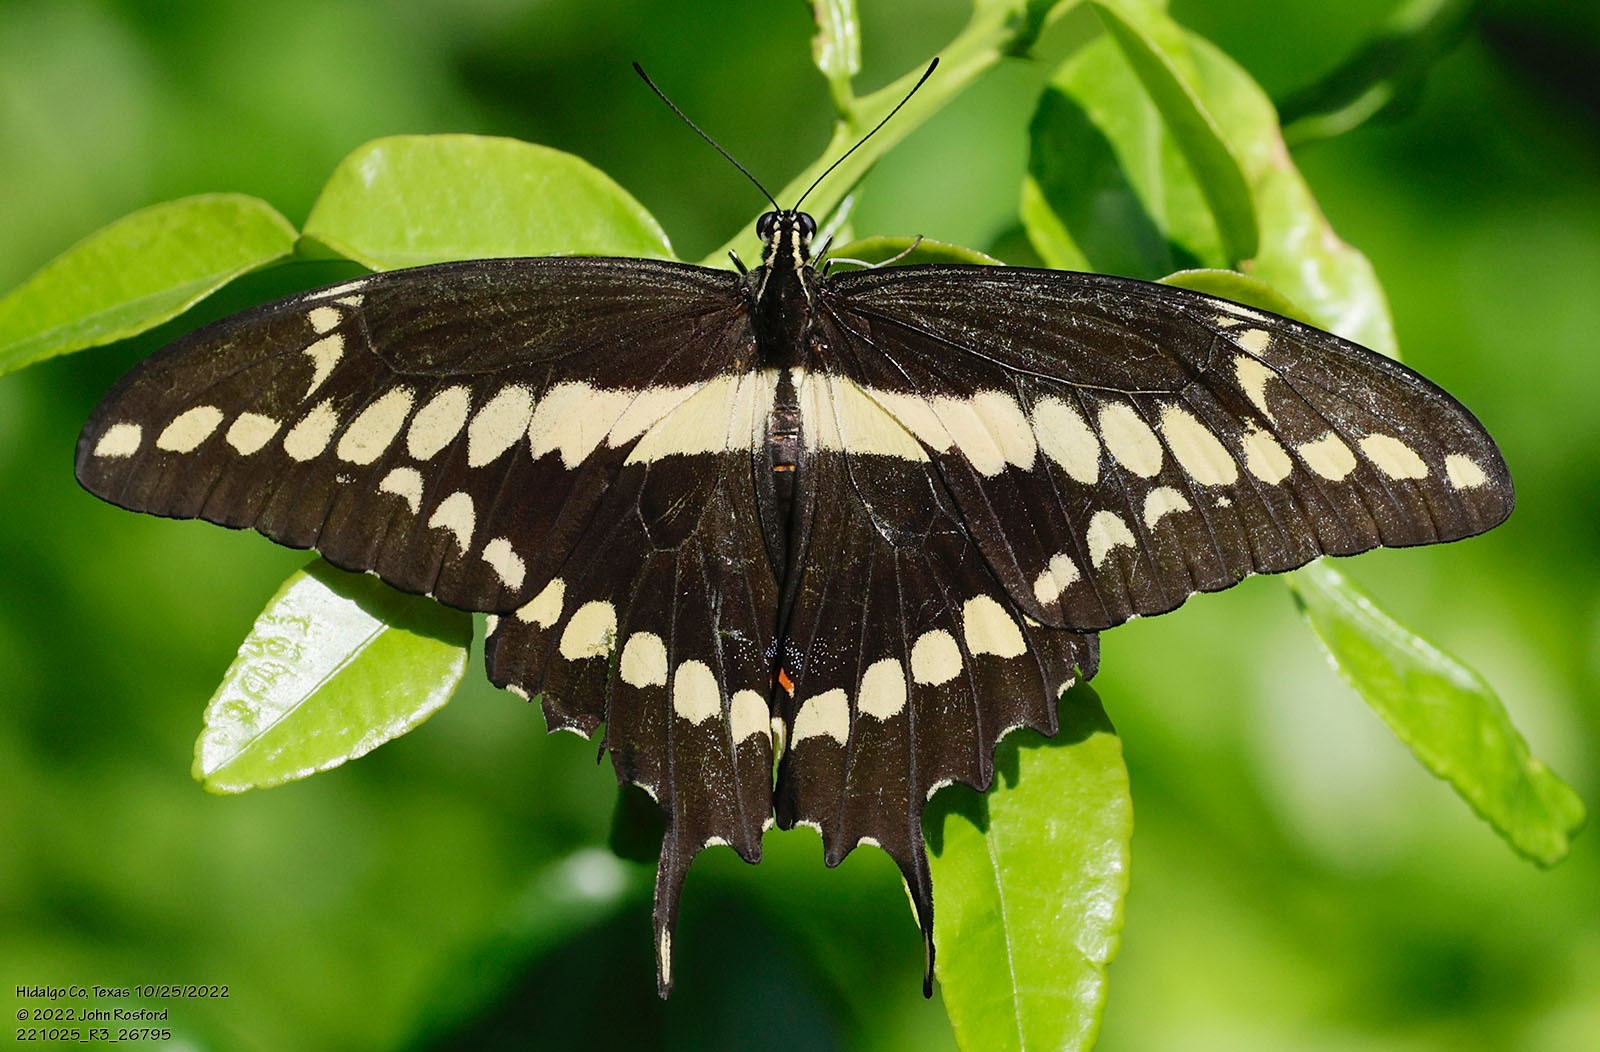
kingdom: Animalia
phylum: Arthropoda
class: Insecta
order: Lepidoptera
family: Papilionidae
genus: Papilio
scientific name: Papilio rumiko
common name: Western giant swallowtail
